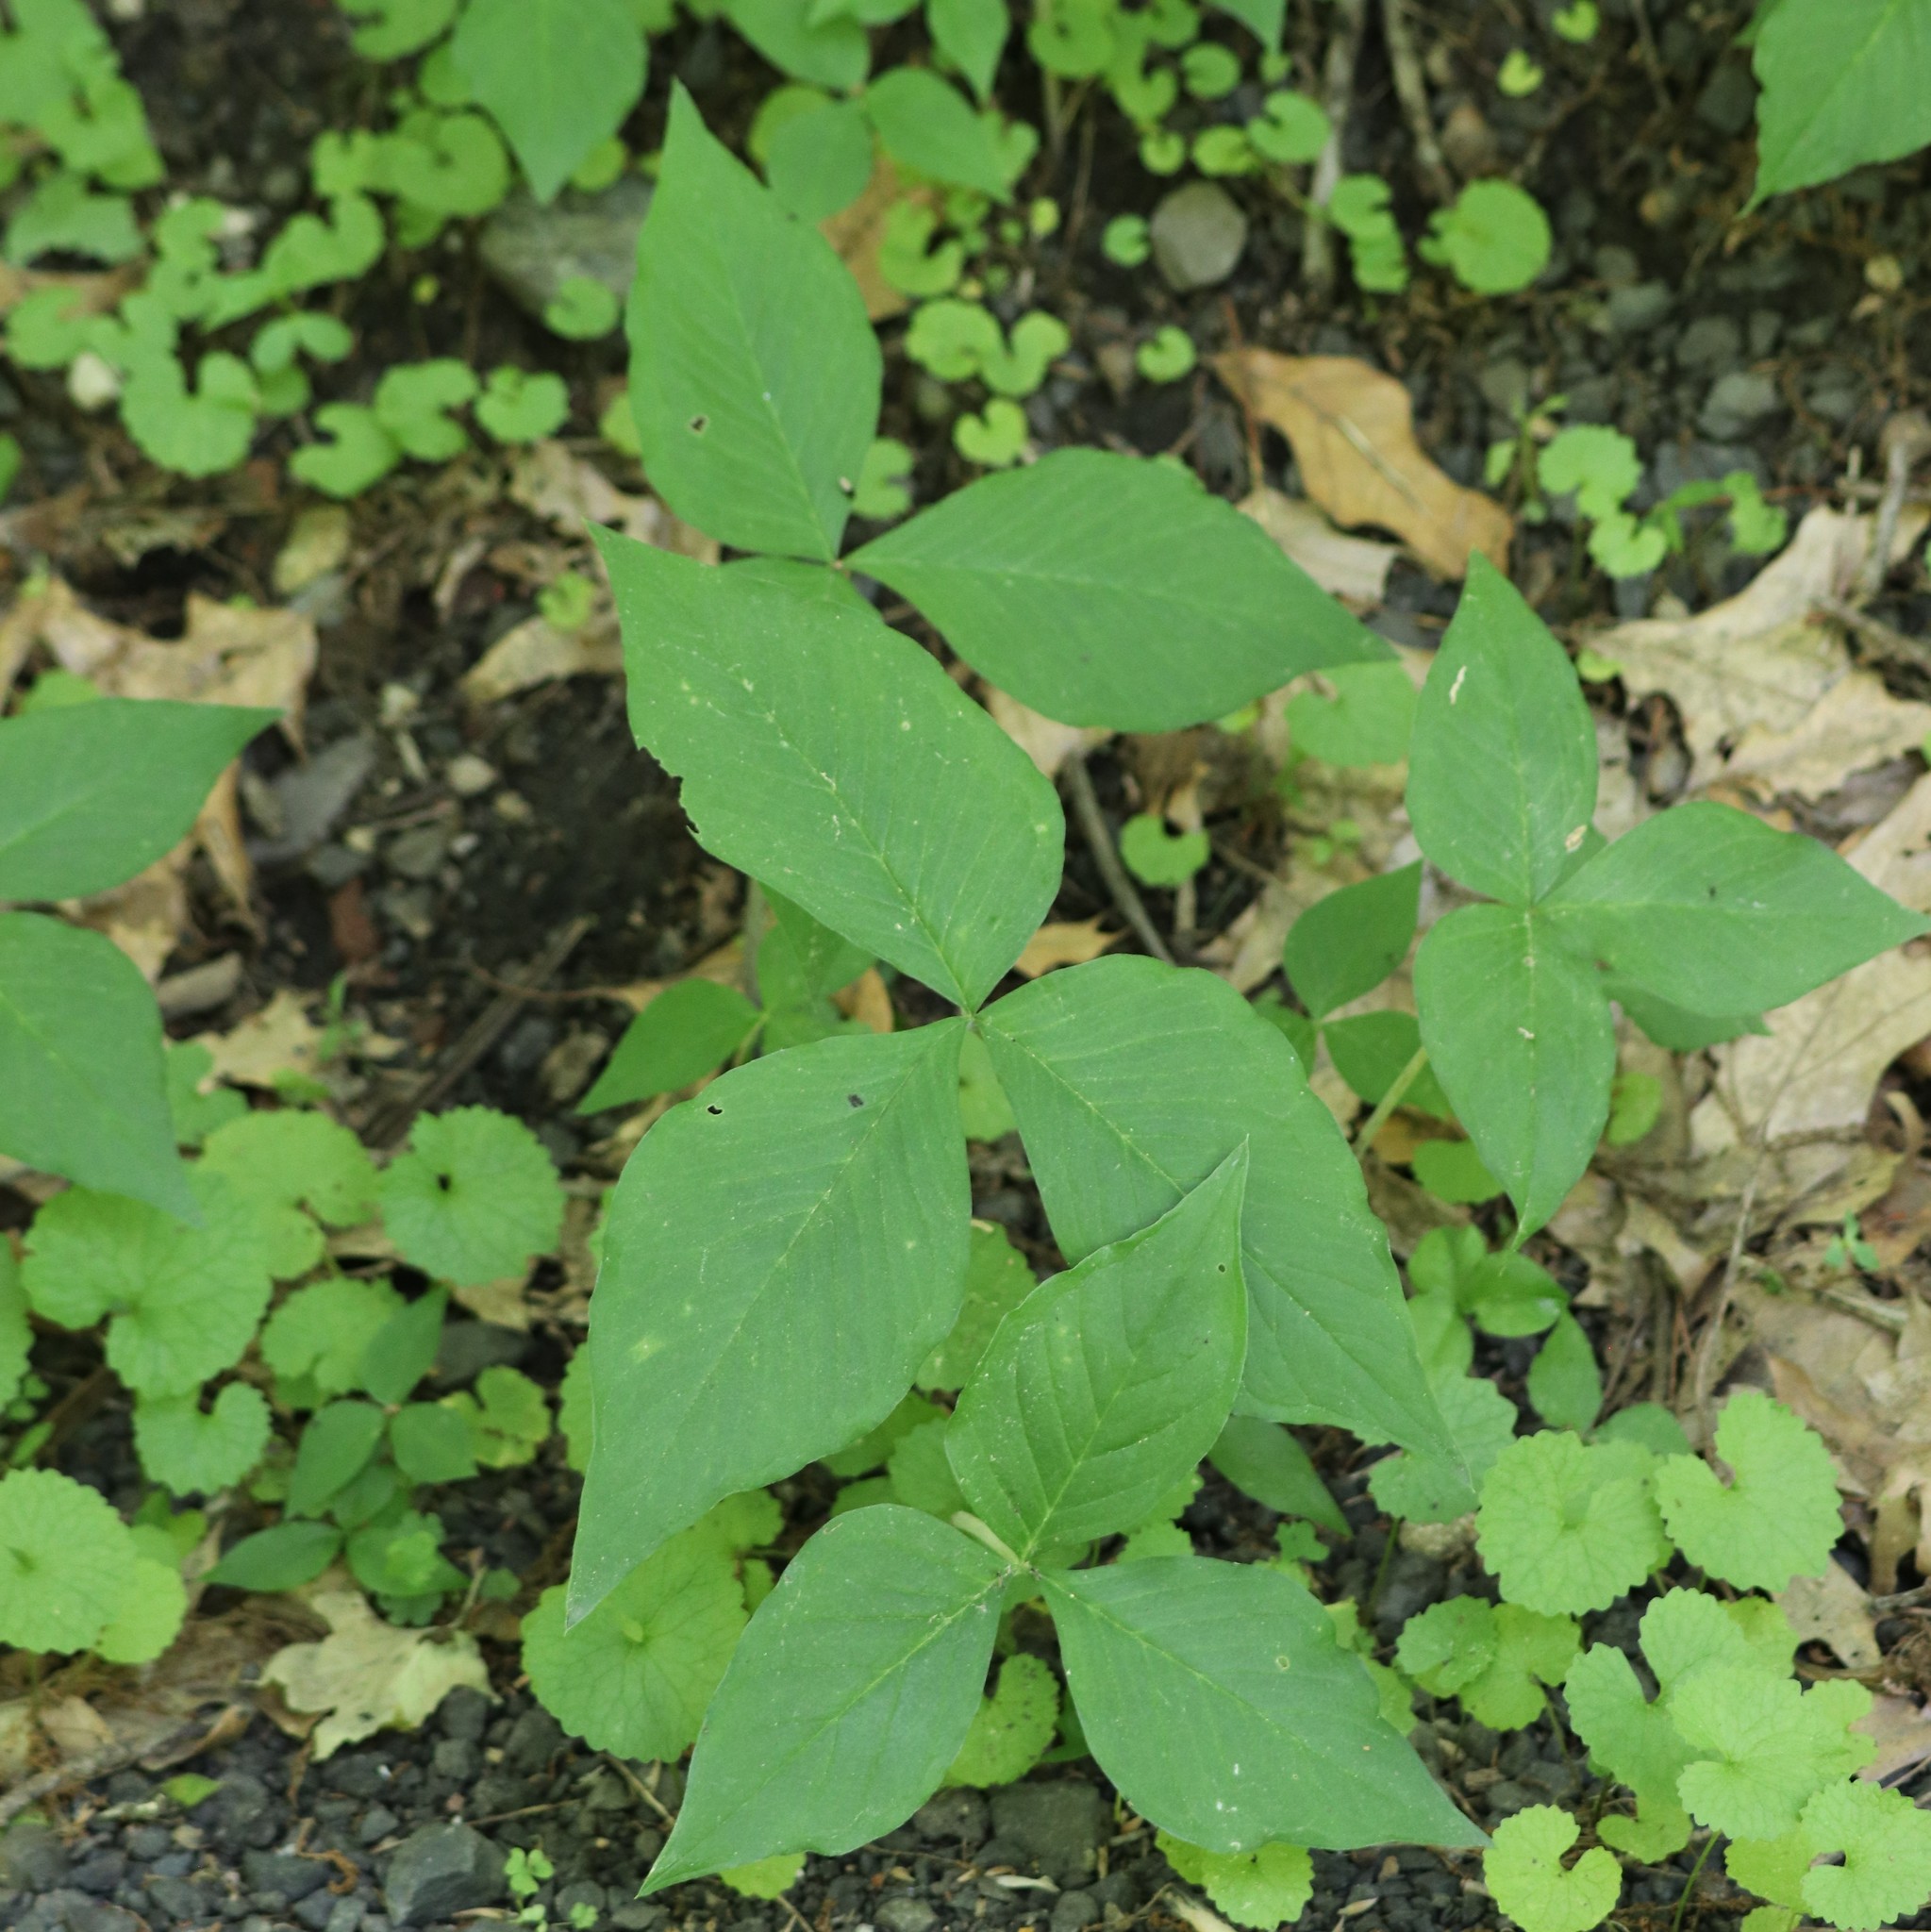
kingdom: Plantae
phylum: Tracheophyta
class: Liliopsida
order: Alismatales
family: Araceae
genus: Arisaema
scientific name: Arisaema triphyllum
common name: Jack-in-the-pulpit
